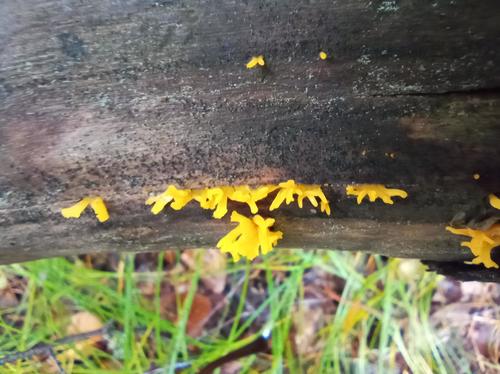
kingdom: Fungi
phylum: Basidiomycota
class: Dacrymycetes
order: Dacrymycetales
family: Dacrymycetaceae
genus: Calocera
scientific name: Calocera cornea
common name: Small stagshorn
